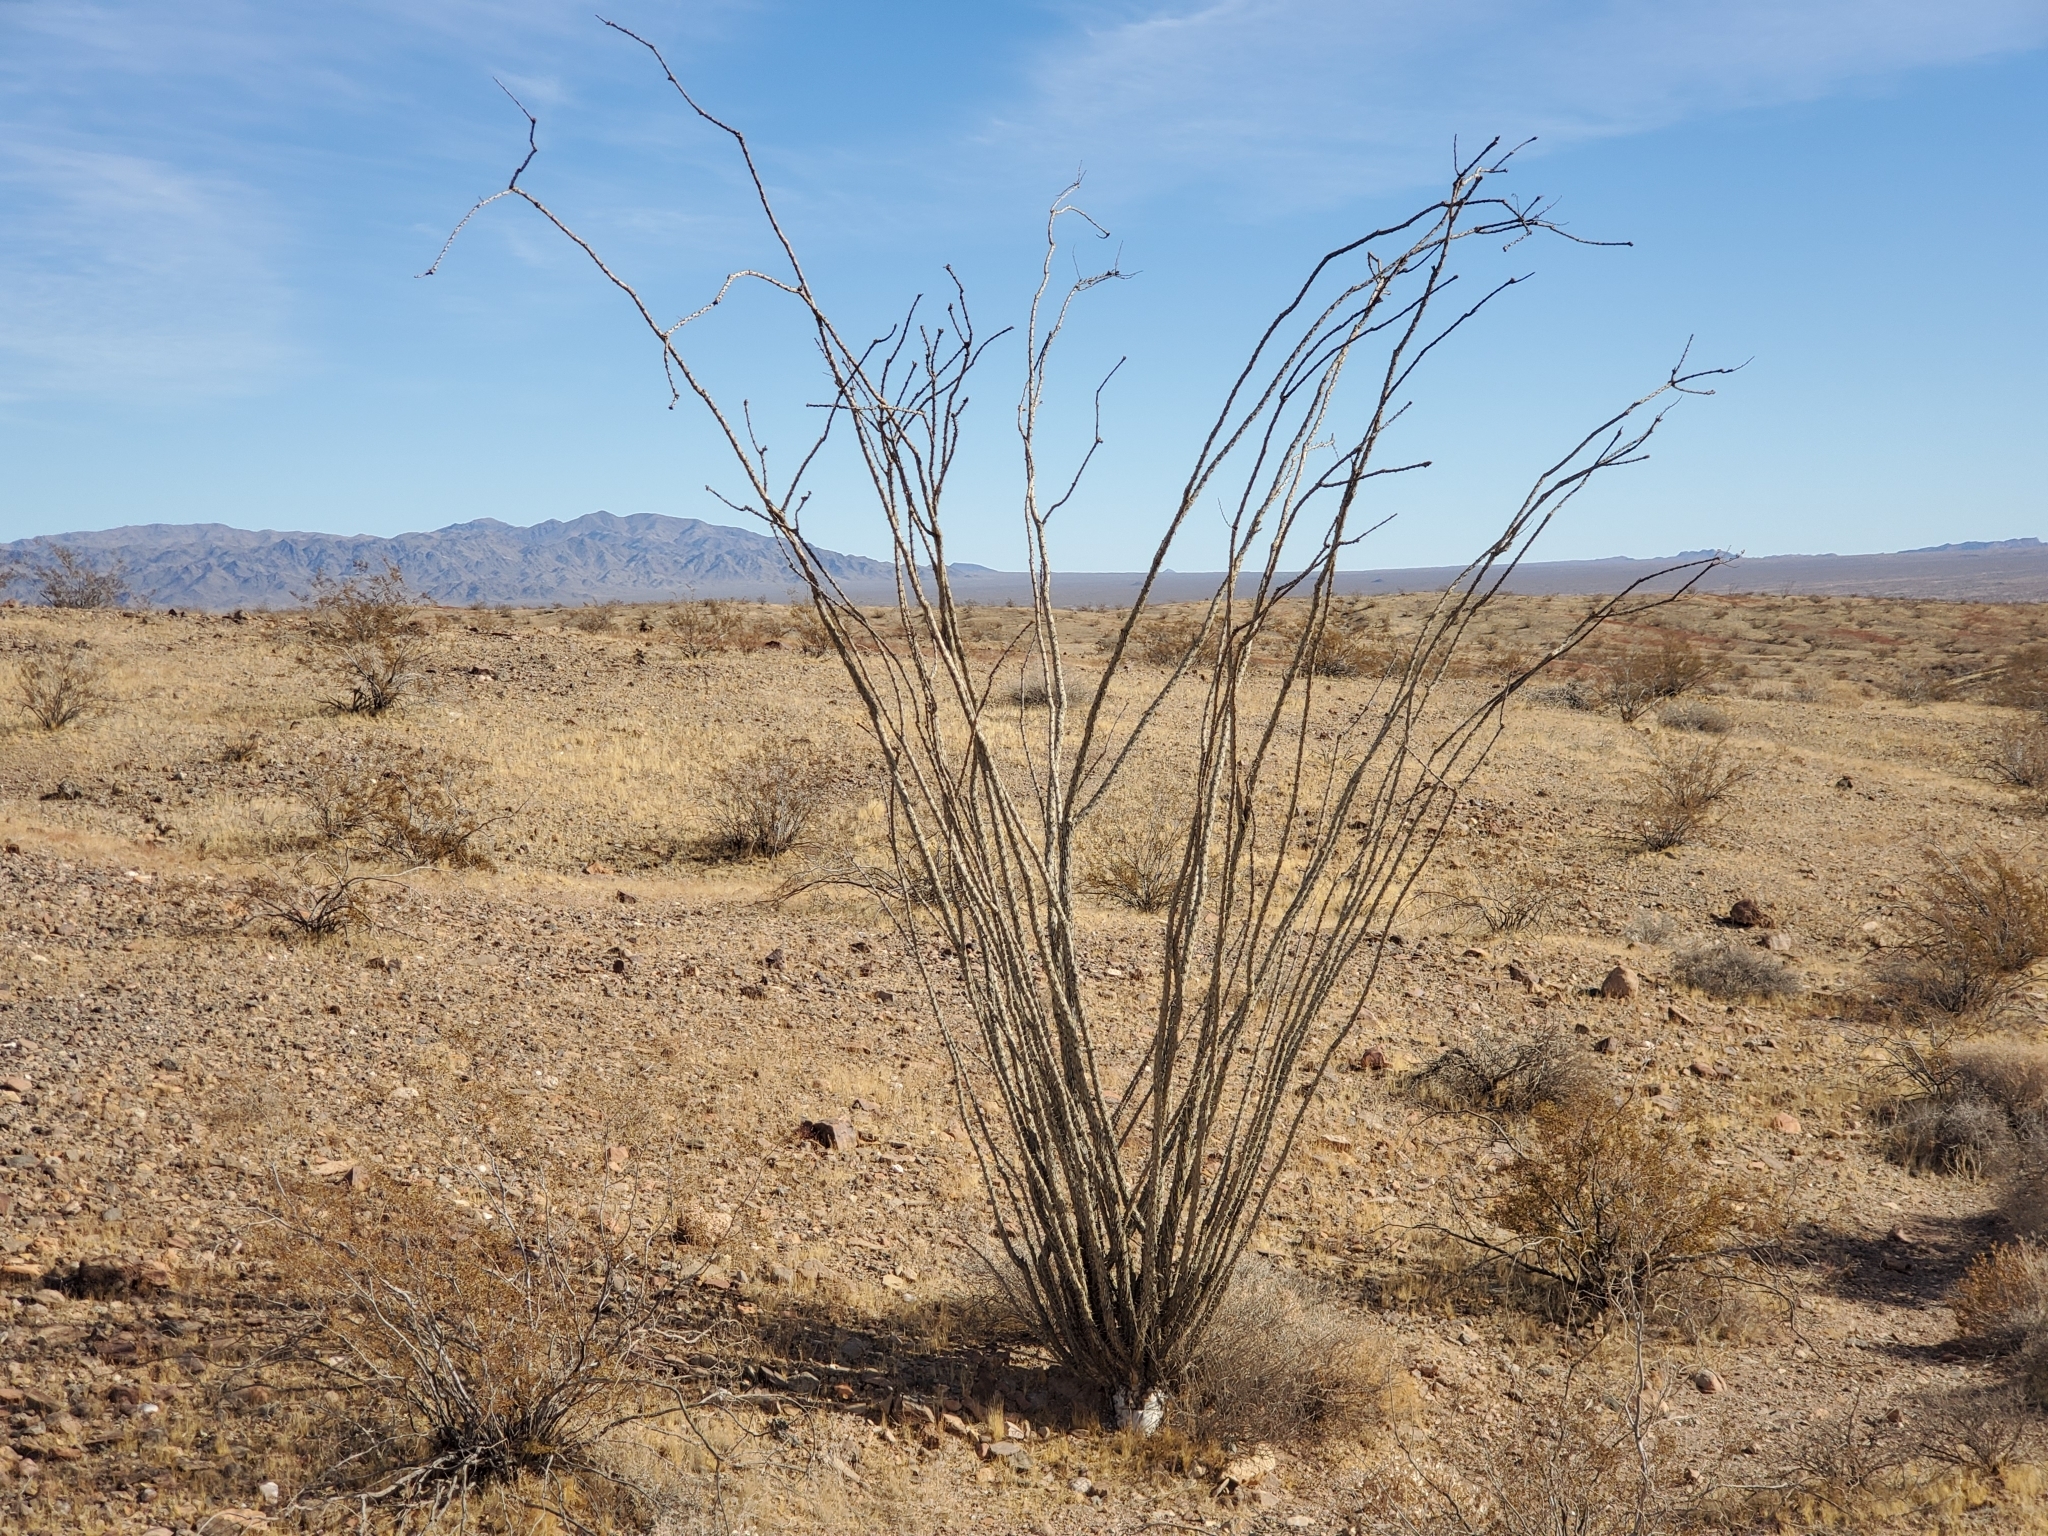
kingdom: Plantae
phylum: Tracheophyta
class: Magnoliopsida
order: Ericales
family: Fouquieriaceae
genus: Fouquieria
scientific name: Fouquieria splendens
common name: Vine-cactus
